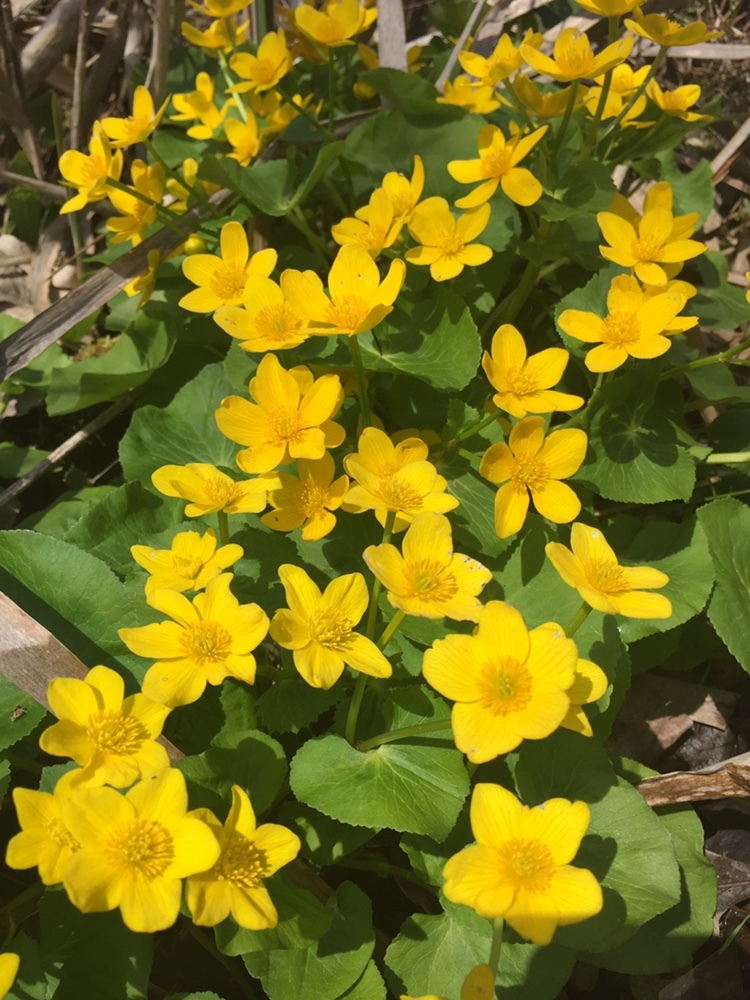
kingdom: Plantae
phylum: Tracheophyta
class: Magnoliopsida
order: Ranunculales
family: Ranunculaceae
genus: Caltha
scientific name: Caltha palustris
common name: Marsh marigold
